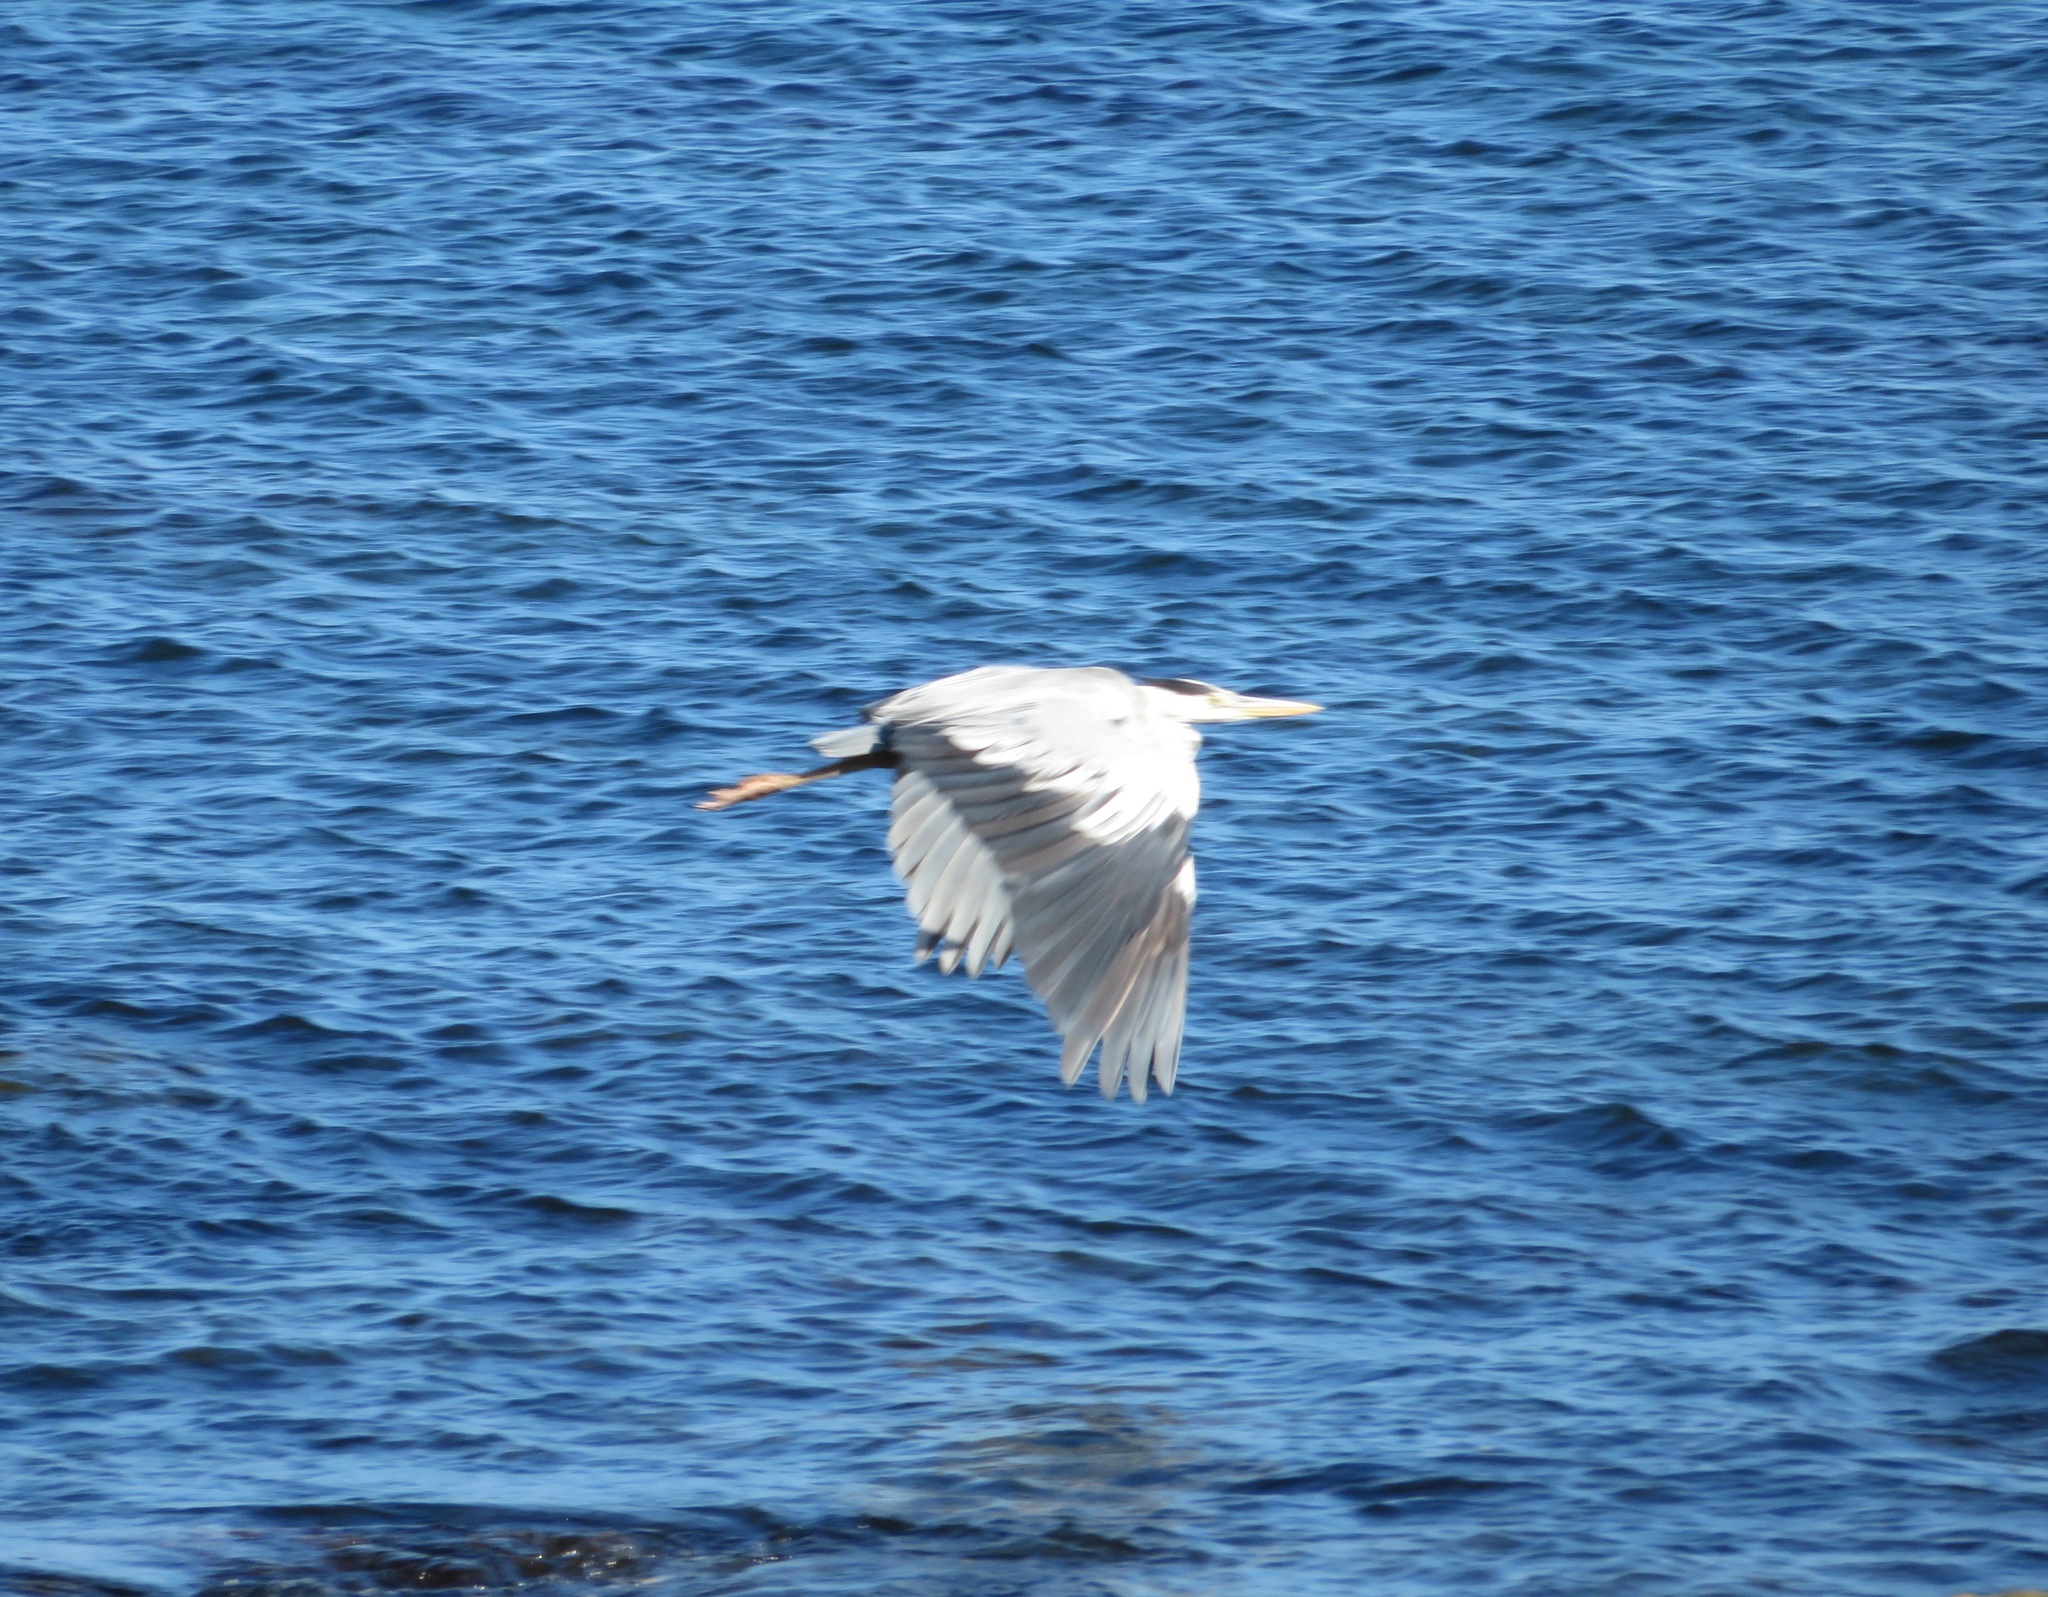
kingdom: Animalia
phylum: Chordata
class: Aves
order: Pelecaniformes
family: Ardeidae
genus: Ardea
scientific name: Ardea cinerea
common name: Grey heron
